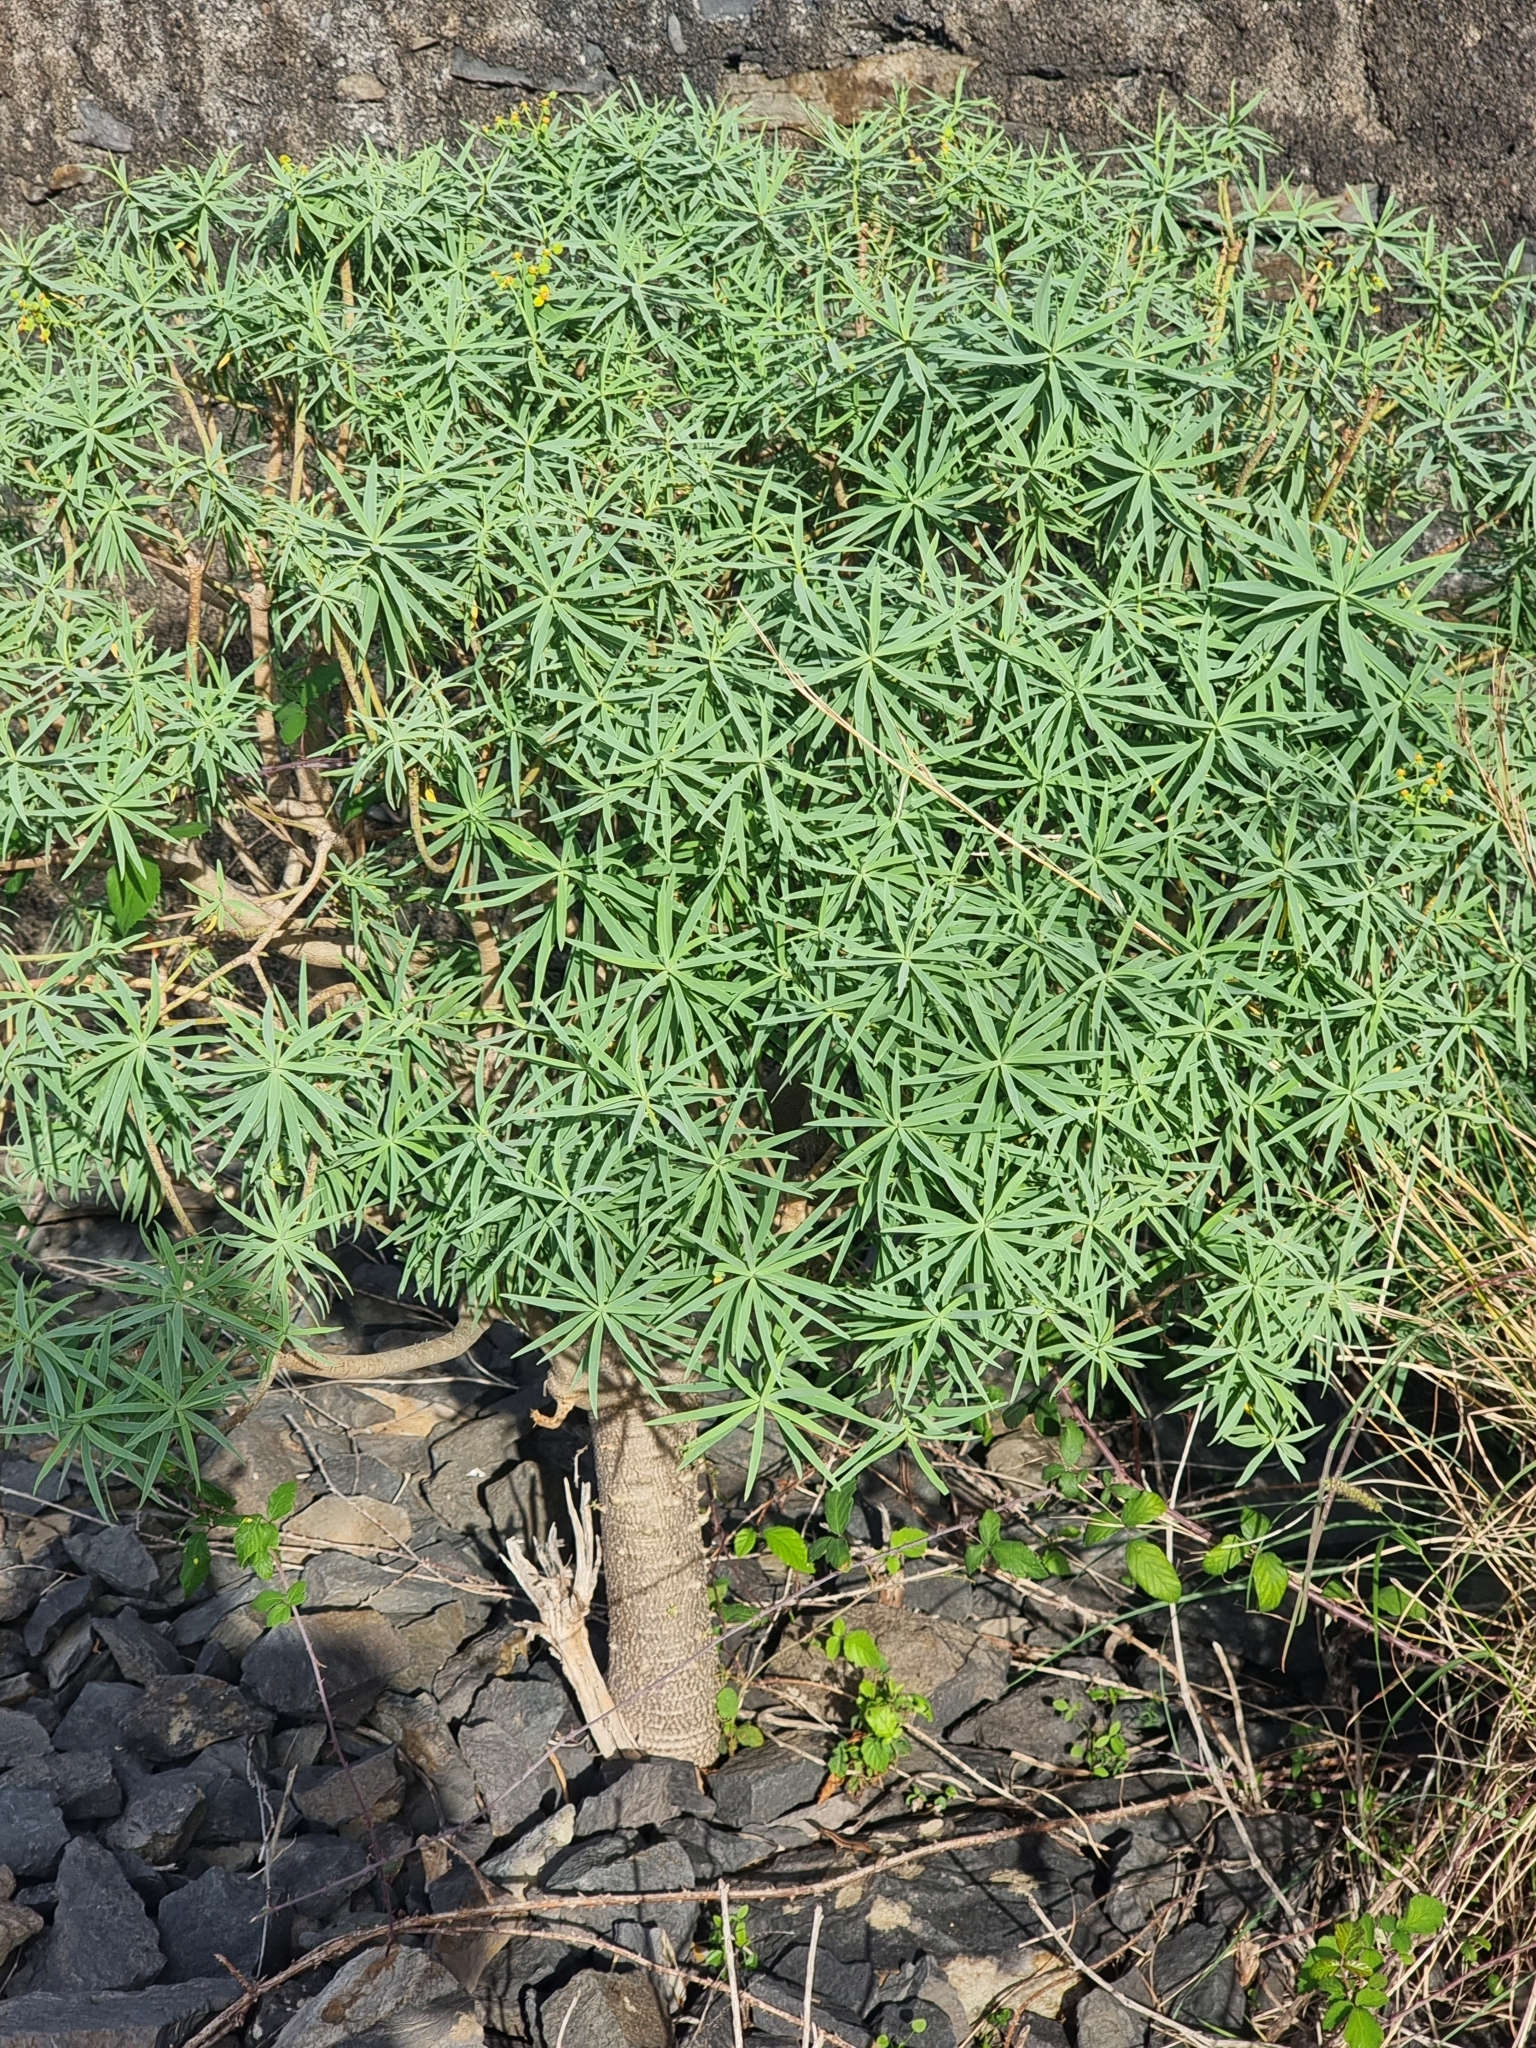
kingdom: Plantae
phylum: Tracheophyta
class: Magnoliopsida
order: Malpighiales
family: Euphorbiaceae
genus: Euphorbia
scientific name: Euphorbia piscatoria
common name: Fish-stunning spurge
